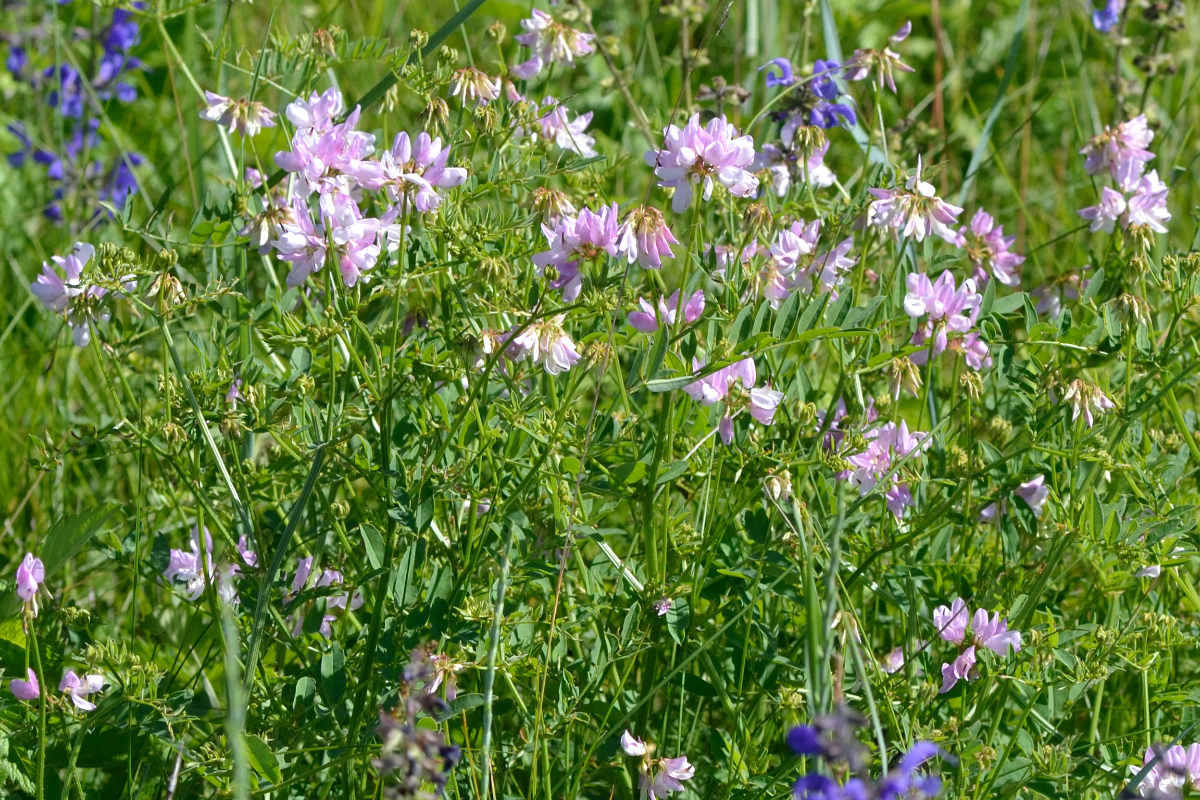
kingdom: Plantae
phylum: Tracheophyta
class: Magnoliopsida
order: Fabales
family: Fabaceae
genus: Coronilla
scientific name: Coronilla varia
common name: Crownvetch
